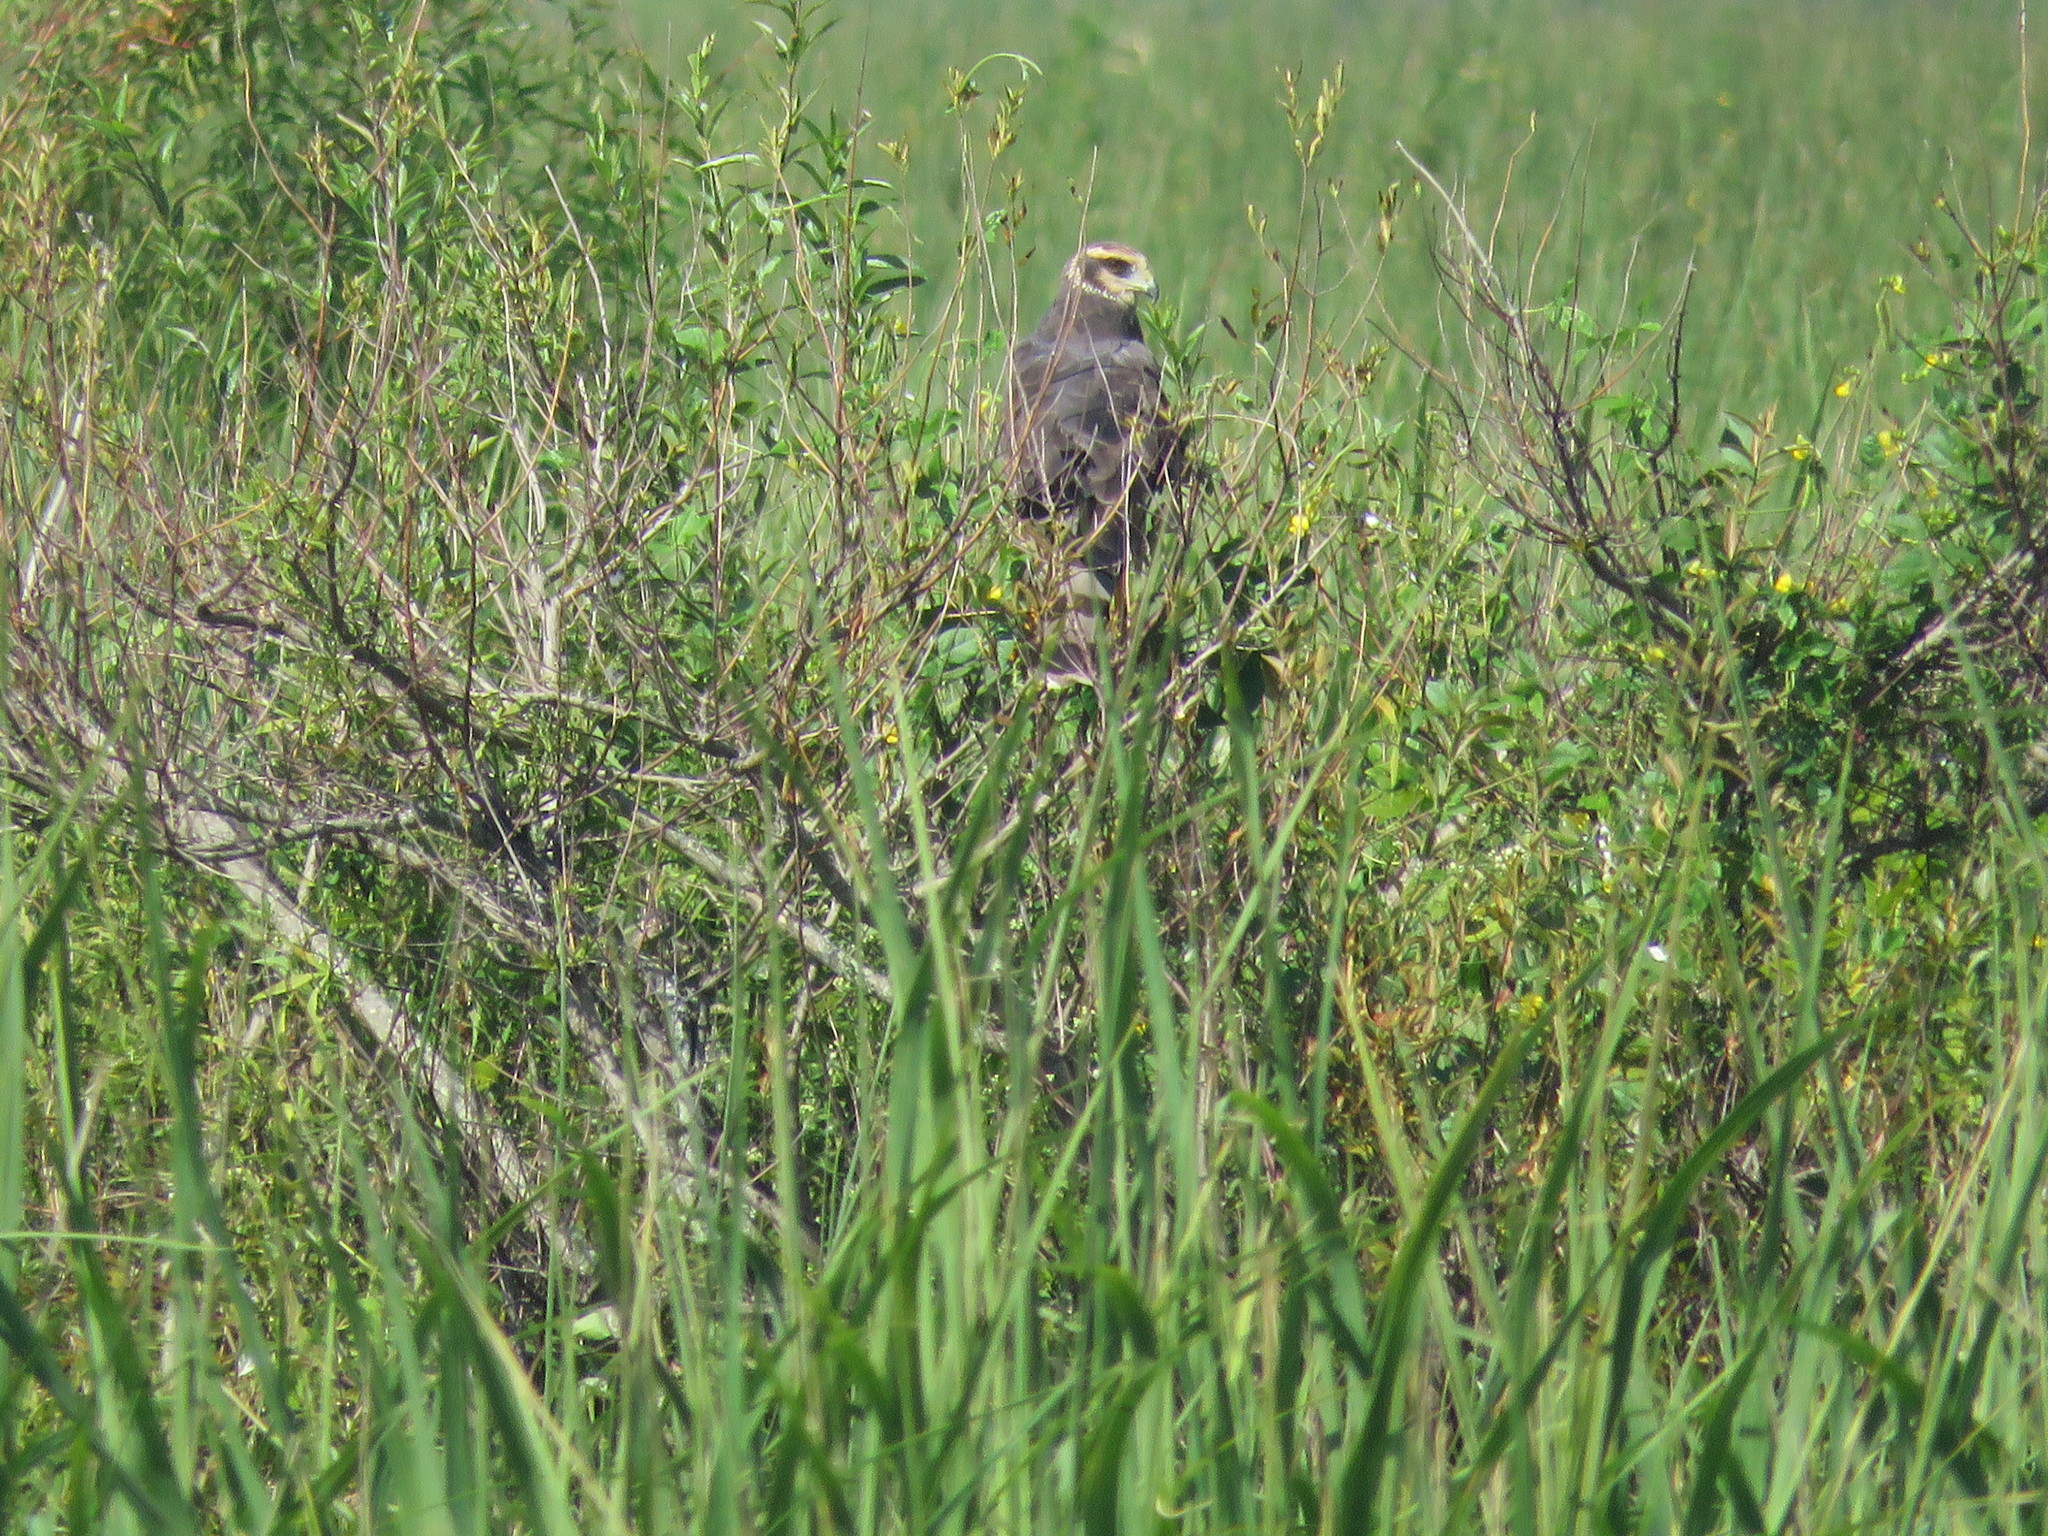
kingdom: Animalia
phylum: Chordata
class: Aves
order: Accipitriformes
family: Accipitridae
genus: Circus
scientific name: Circus buffoni
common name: Long-winged harrier
